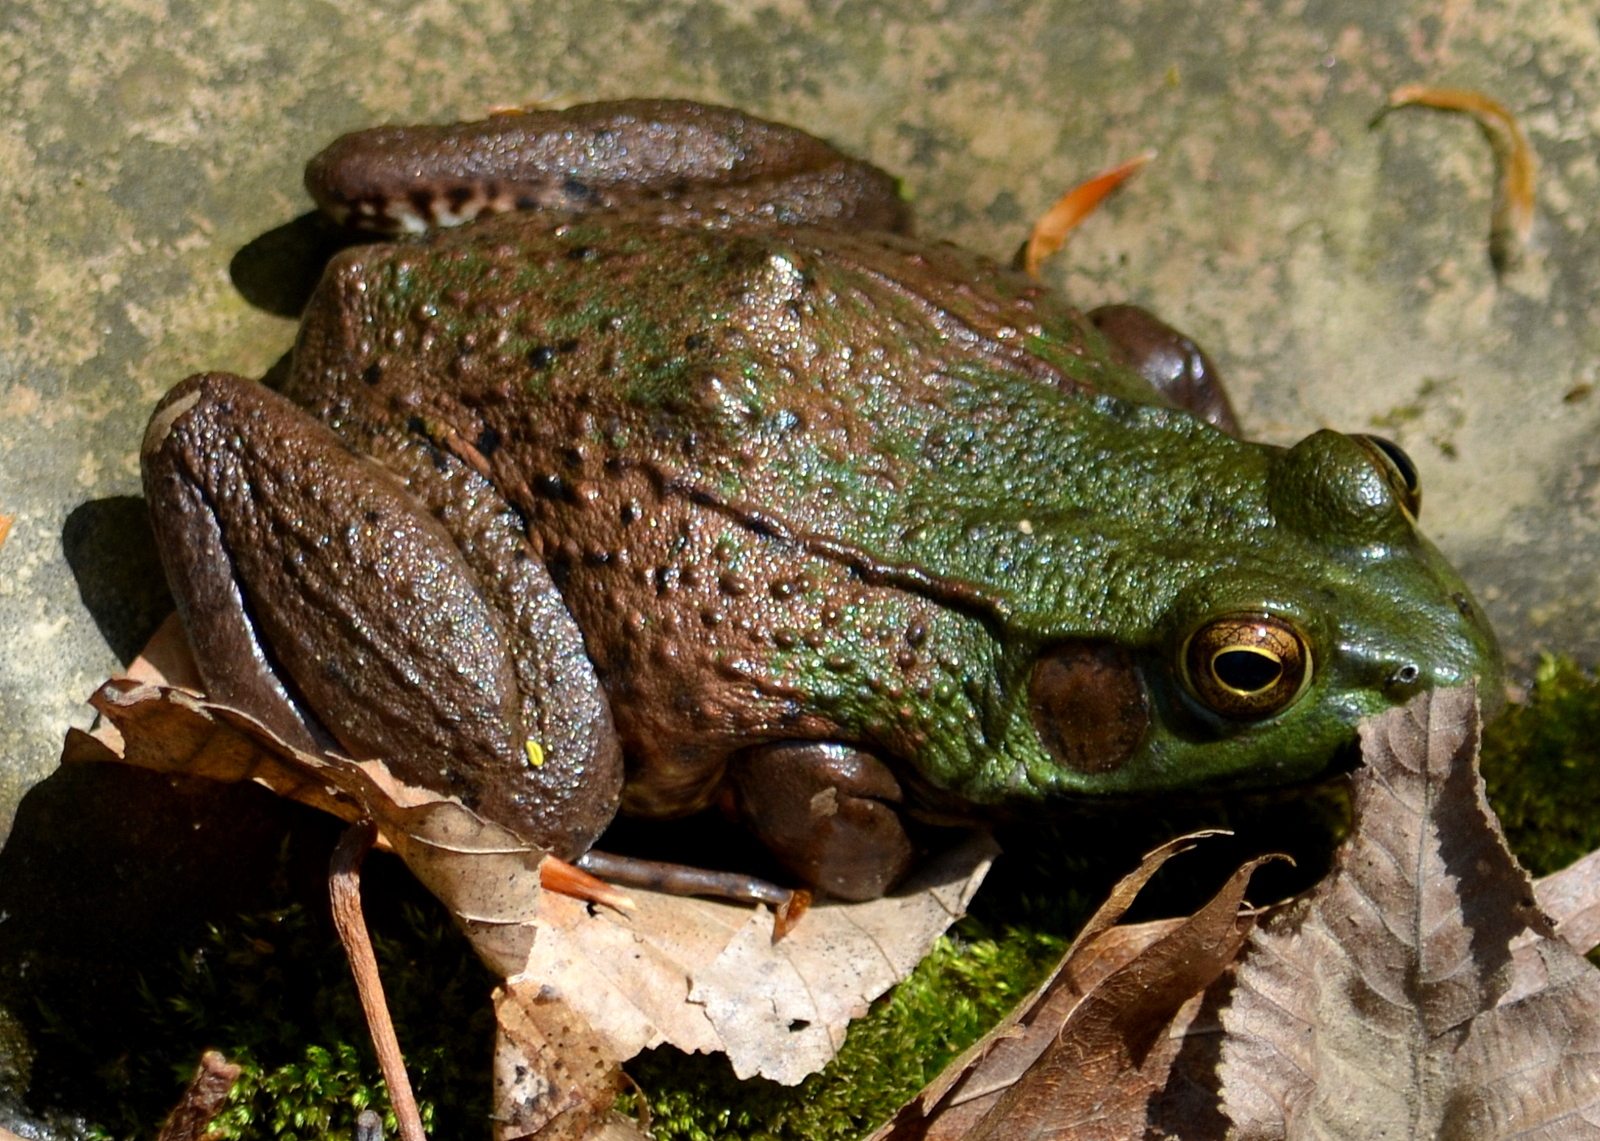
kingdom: Animalia
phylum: Chordata
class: Amphibia
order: Anura
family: Ranidae
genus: Lithobates
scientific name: Lithobates clamitans
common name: Green frog
